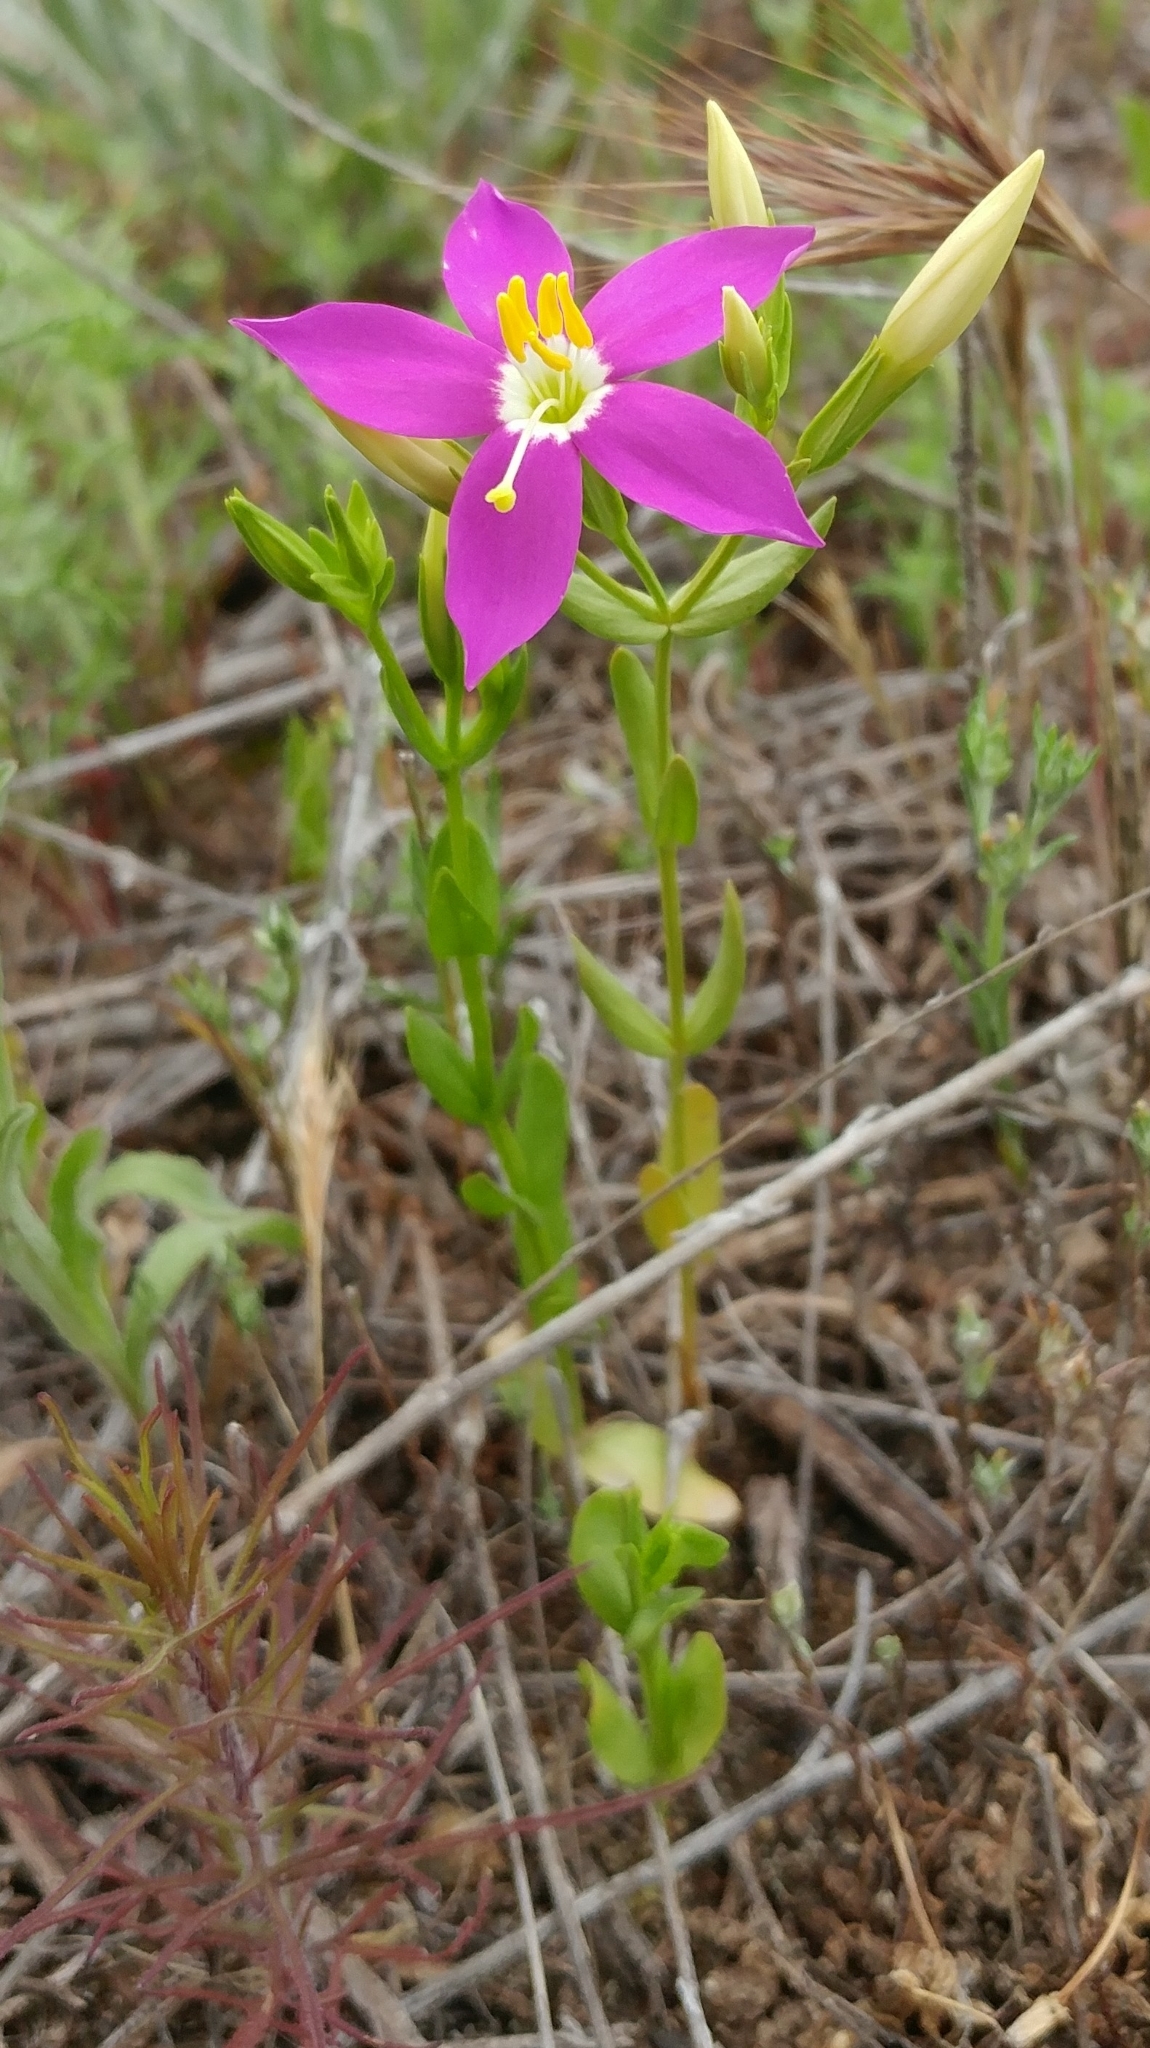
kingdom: Plantae
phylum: Tracheophyta
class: Magnoliopsida
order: Gentianales
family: Gentianaceae
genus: Zeltnera
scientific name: Zeltnera venusta
